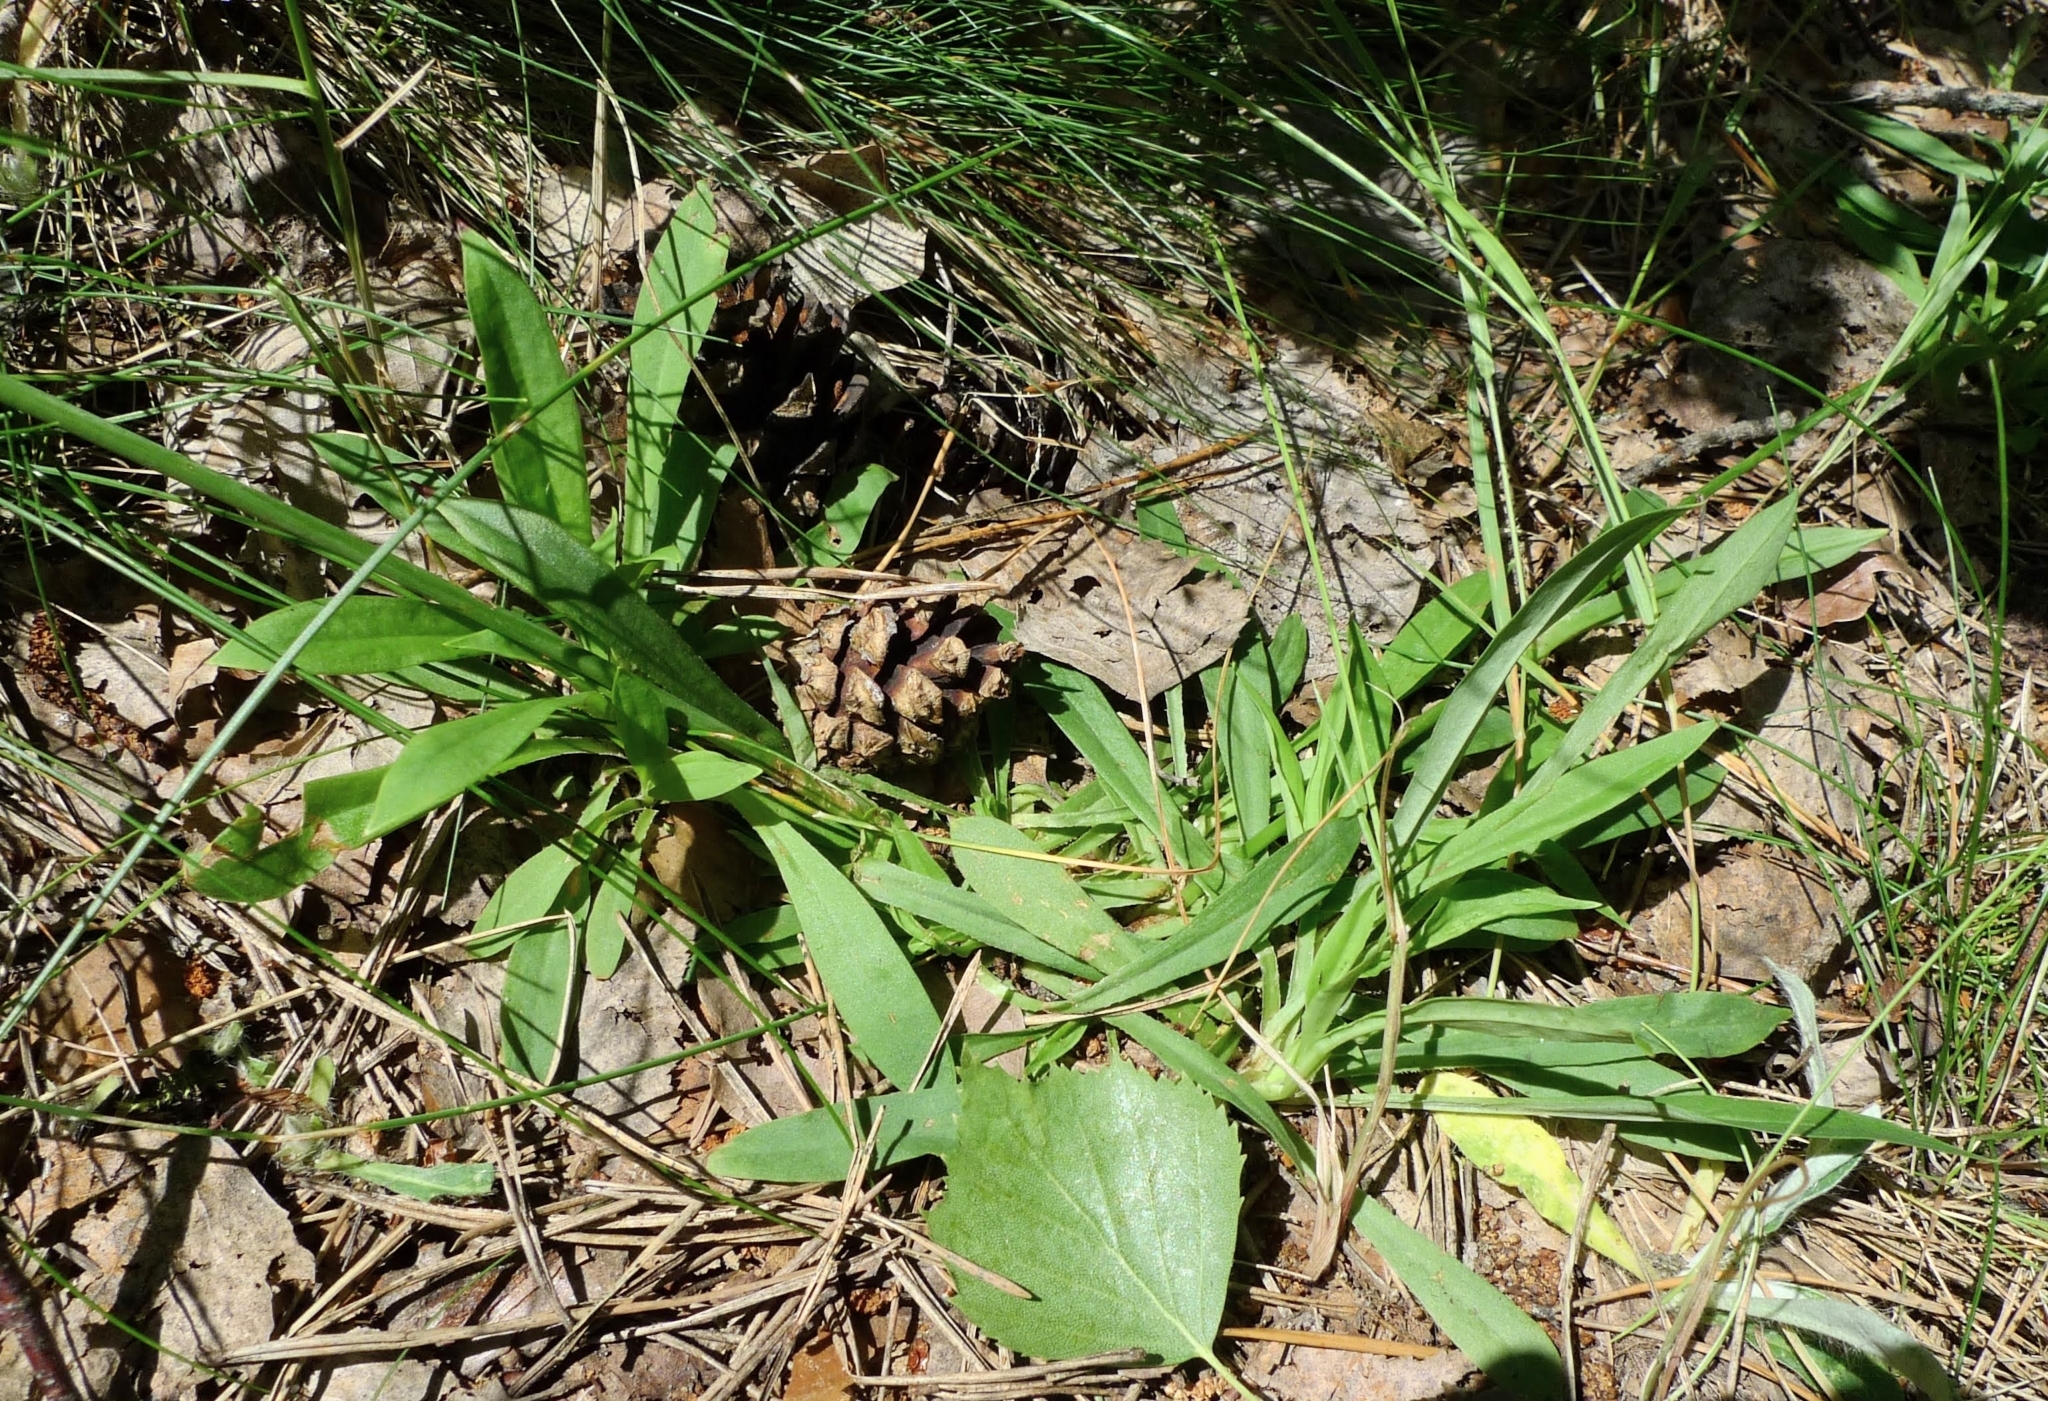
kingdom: Plantae
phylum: Tracheophyta
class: Magnoliopsida
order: Caryophyllales
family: Caryophyllaceae
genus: Viscaria
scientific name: Viscaria vulgaris
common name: Clammy campion
